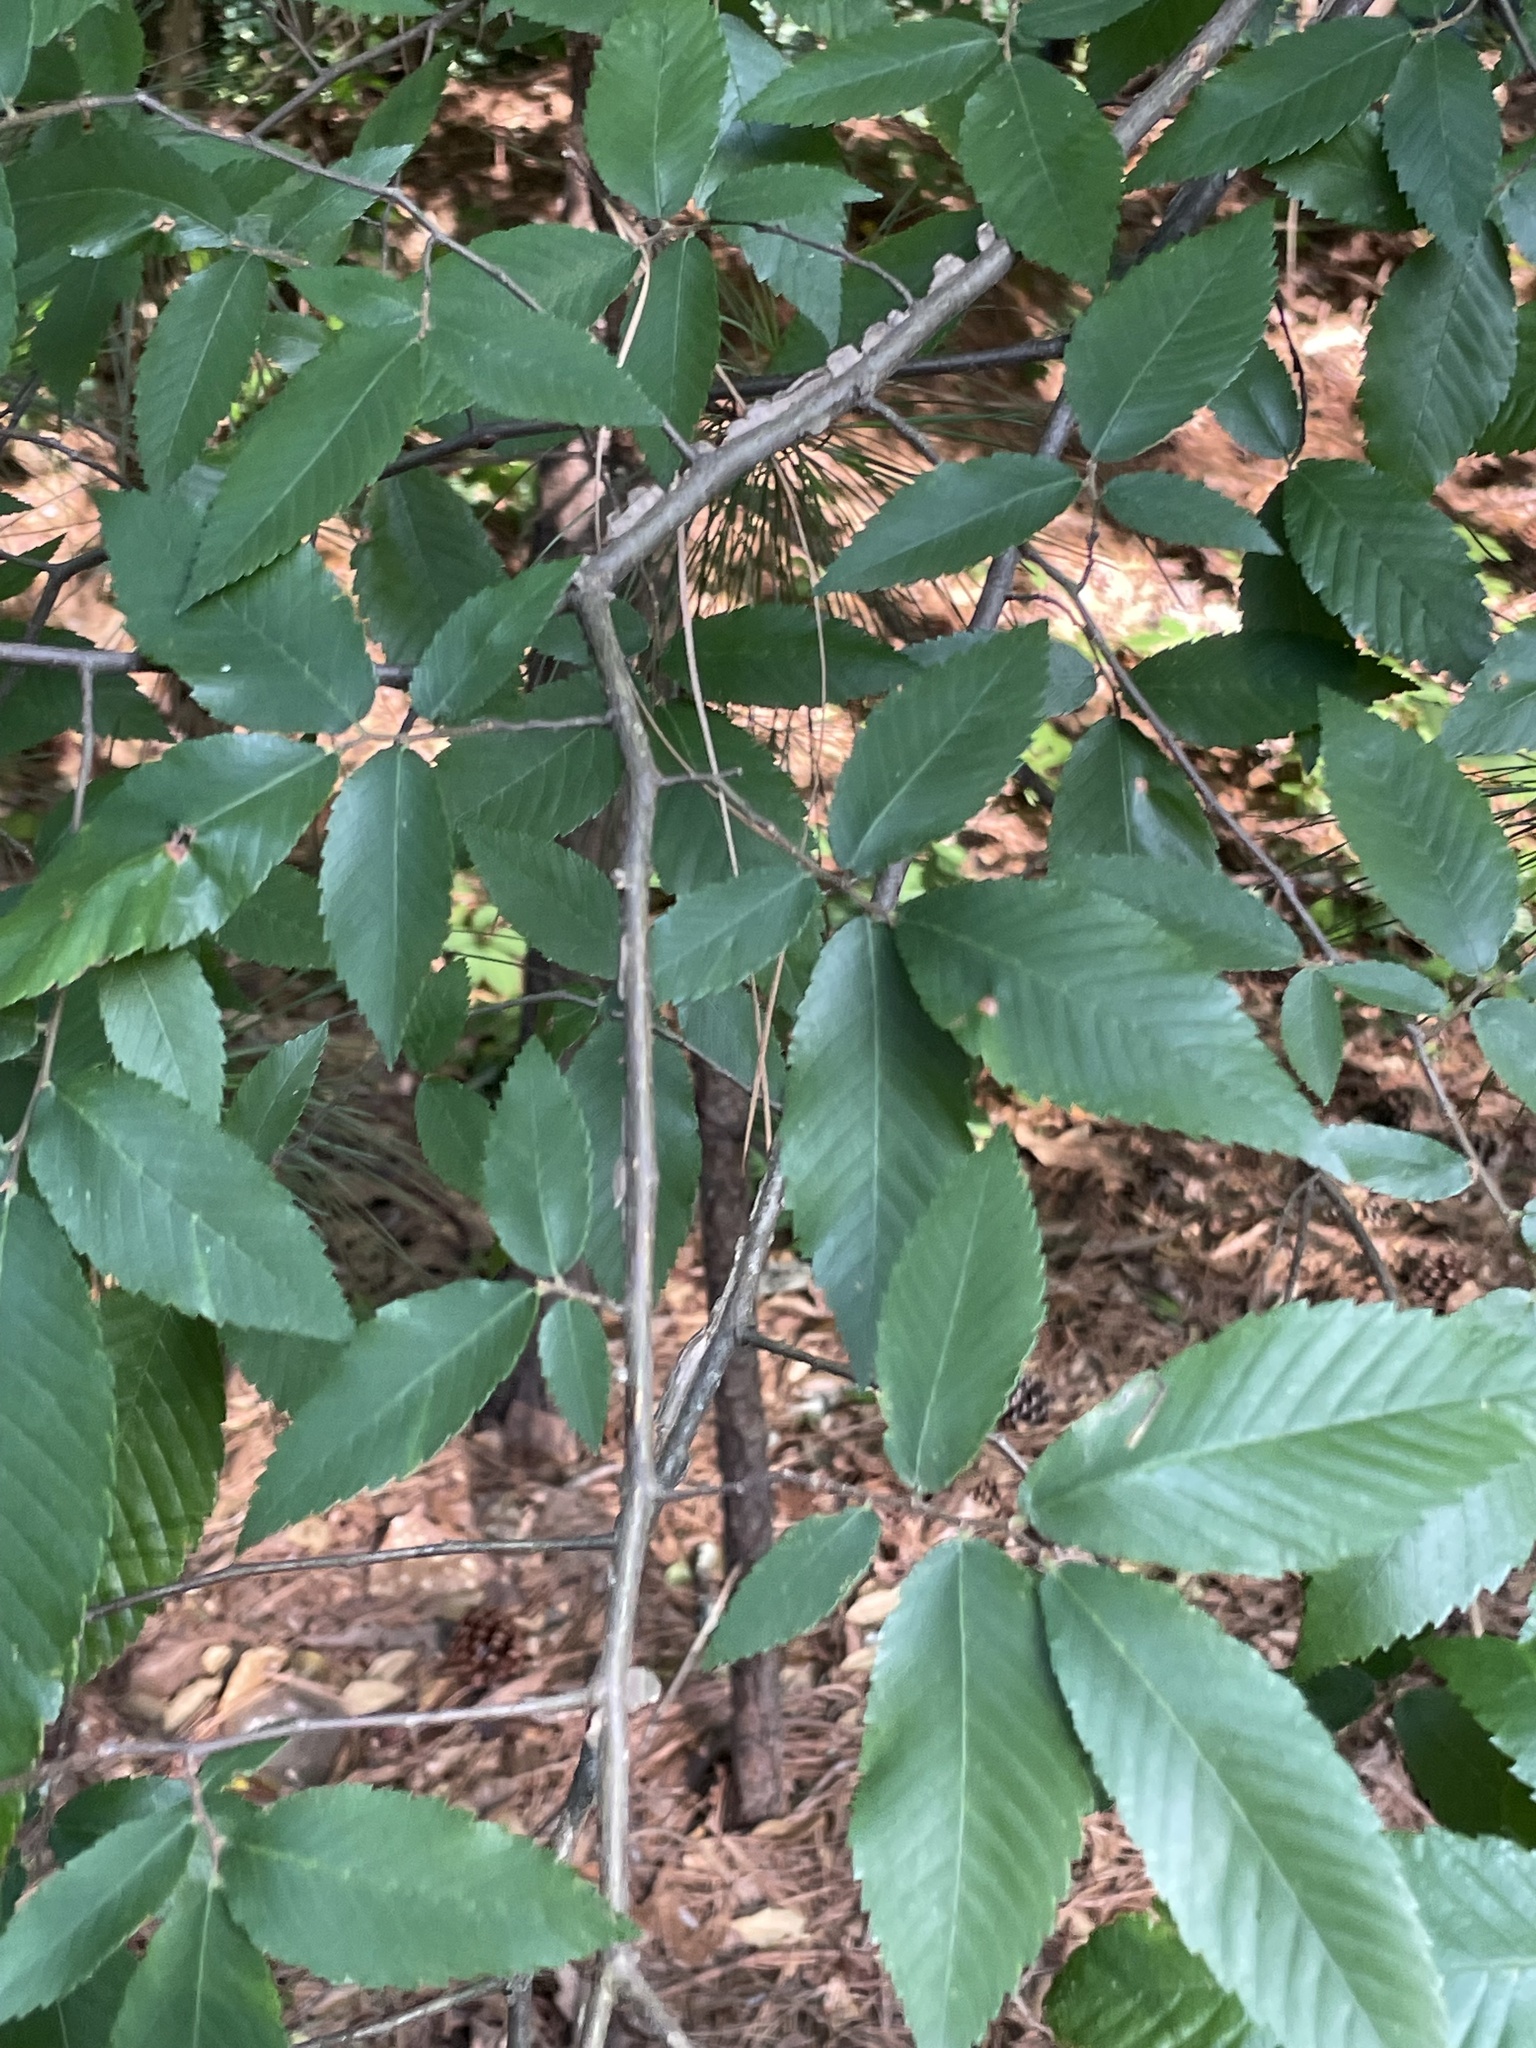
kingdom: Plantae
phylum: Tracheophyta
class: Magnoliopsida
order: Rosales
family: Ulmaceae
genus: Ulmus
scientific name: Ulmus alata
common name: Winged elm
